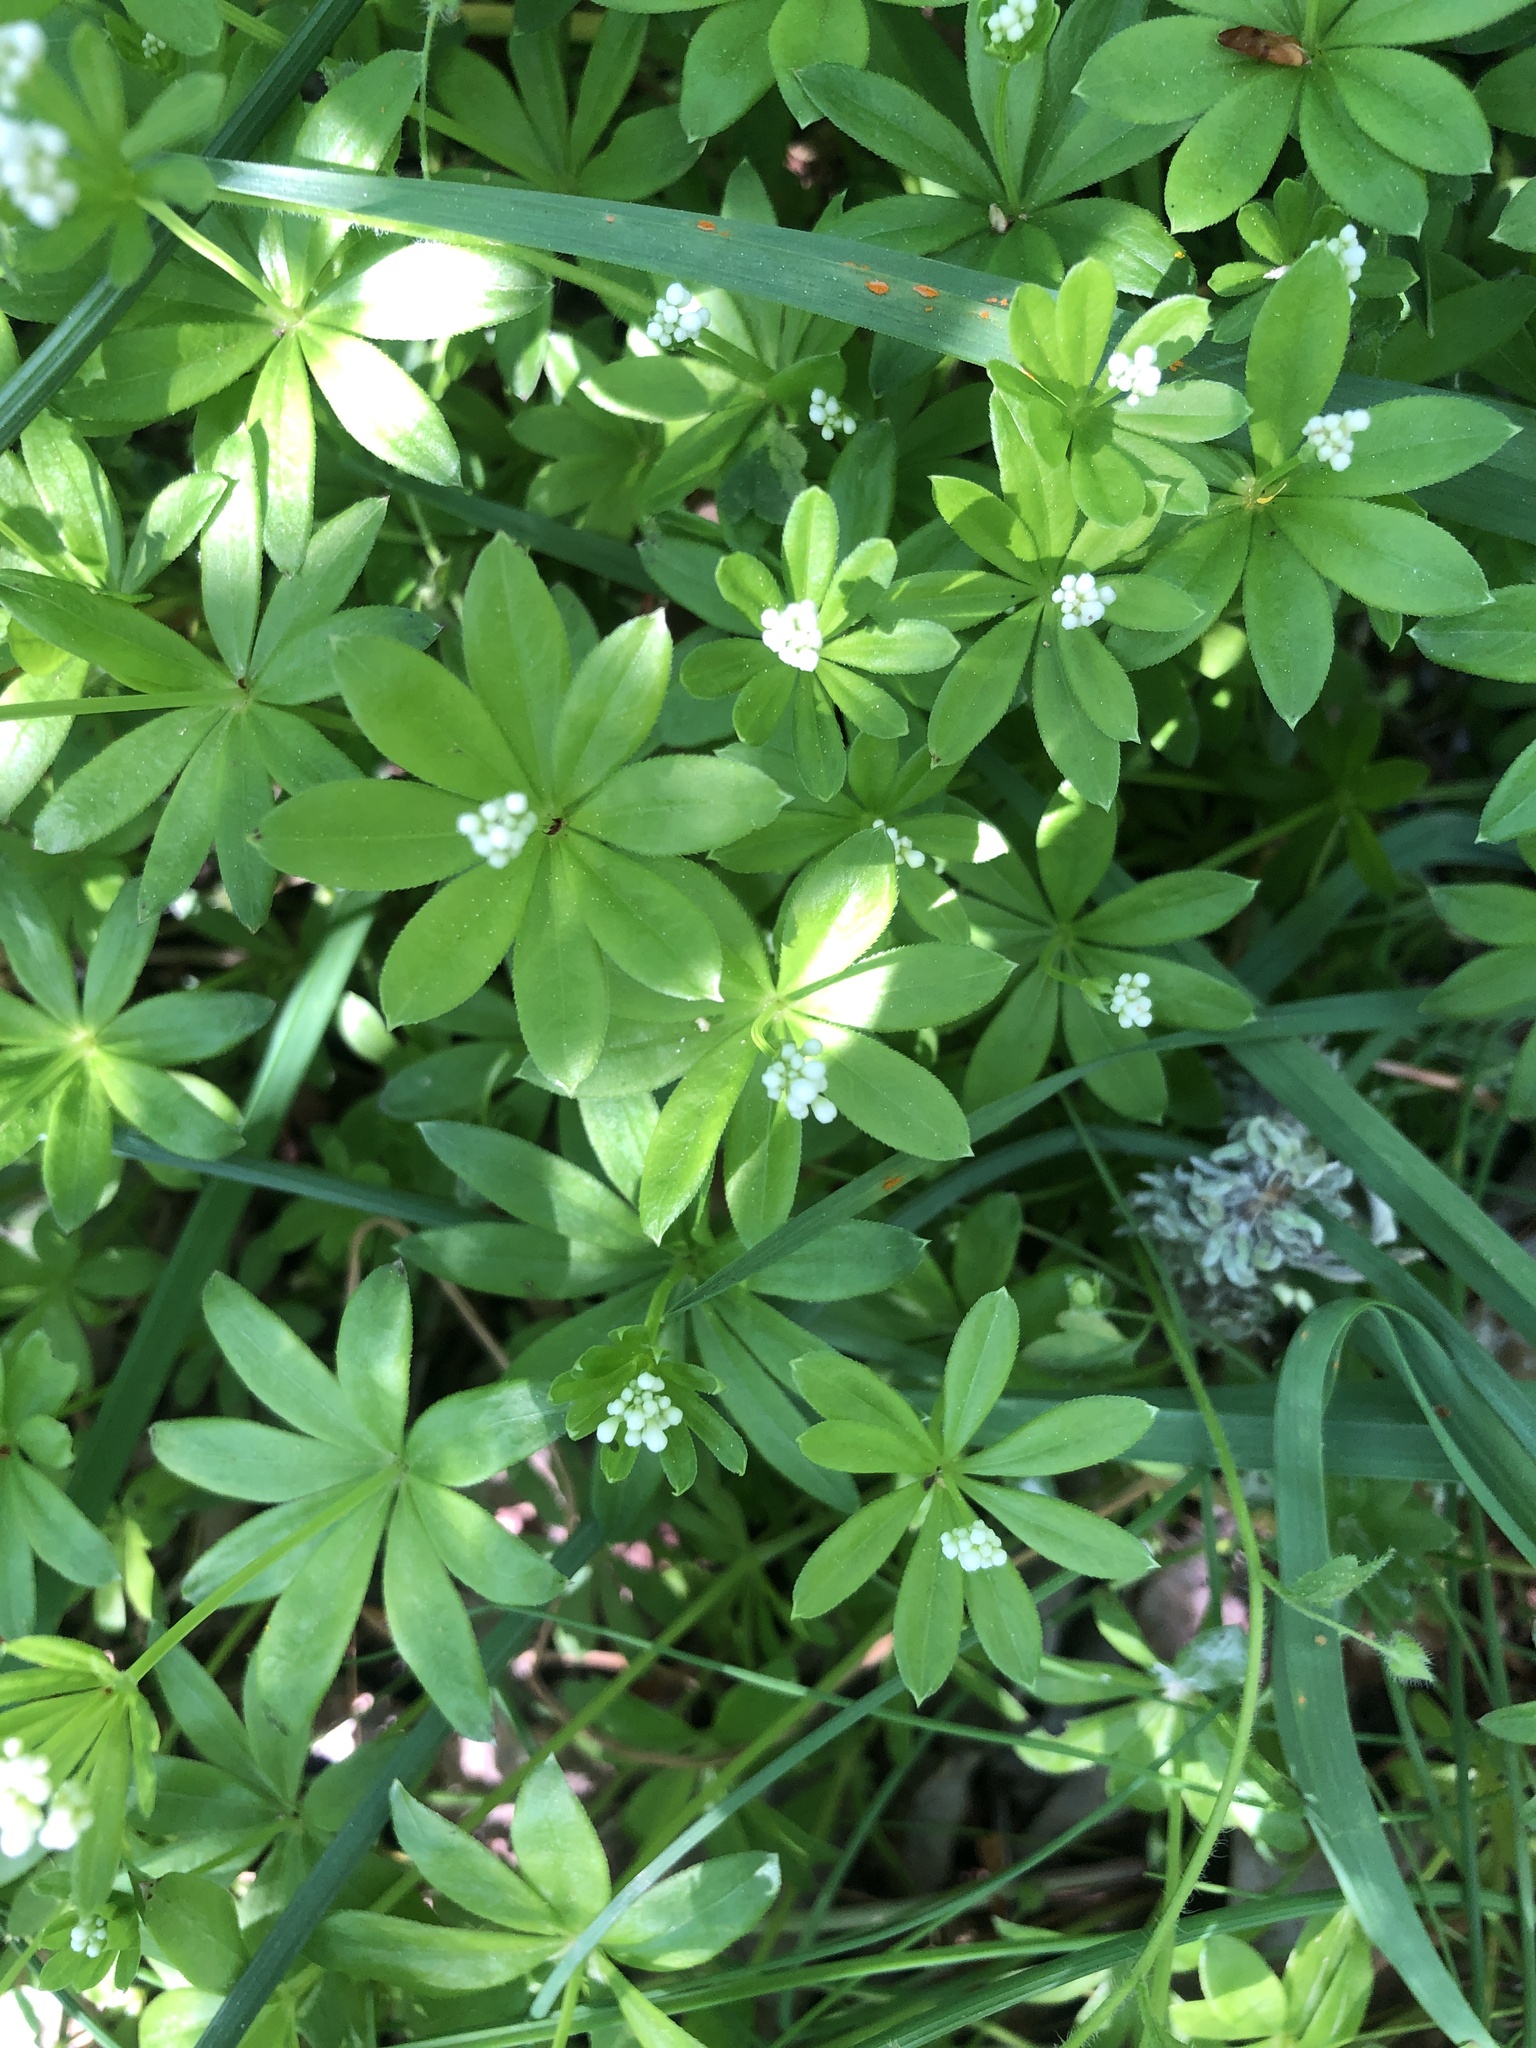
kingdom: Plantae
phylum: Tracheophyta
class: Magnoliopsida
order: Gentianales
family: Rubiaceae
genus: Galium
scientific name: Galium odoratum
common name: Sweet woodruff
